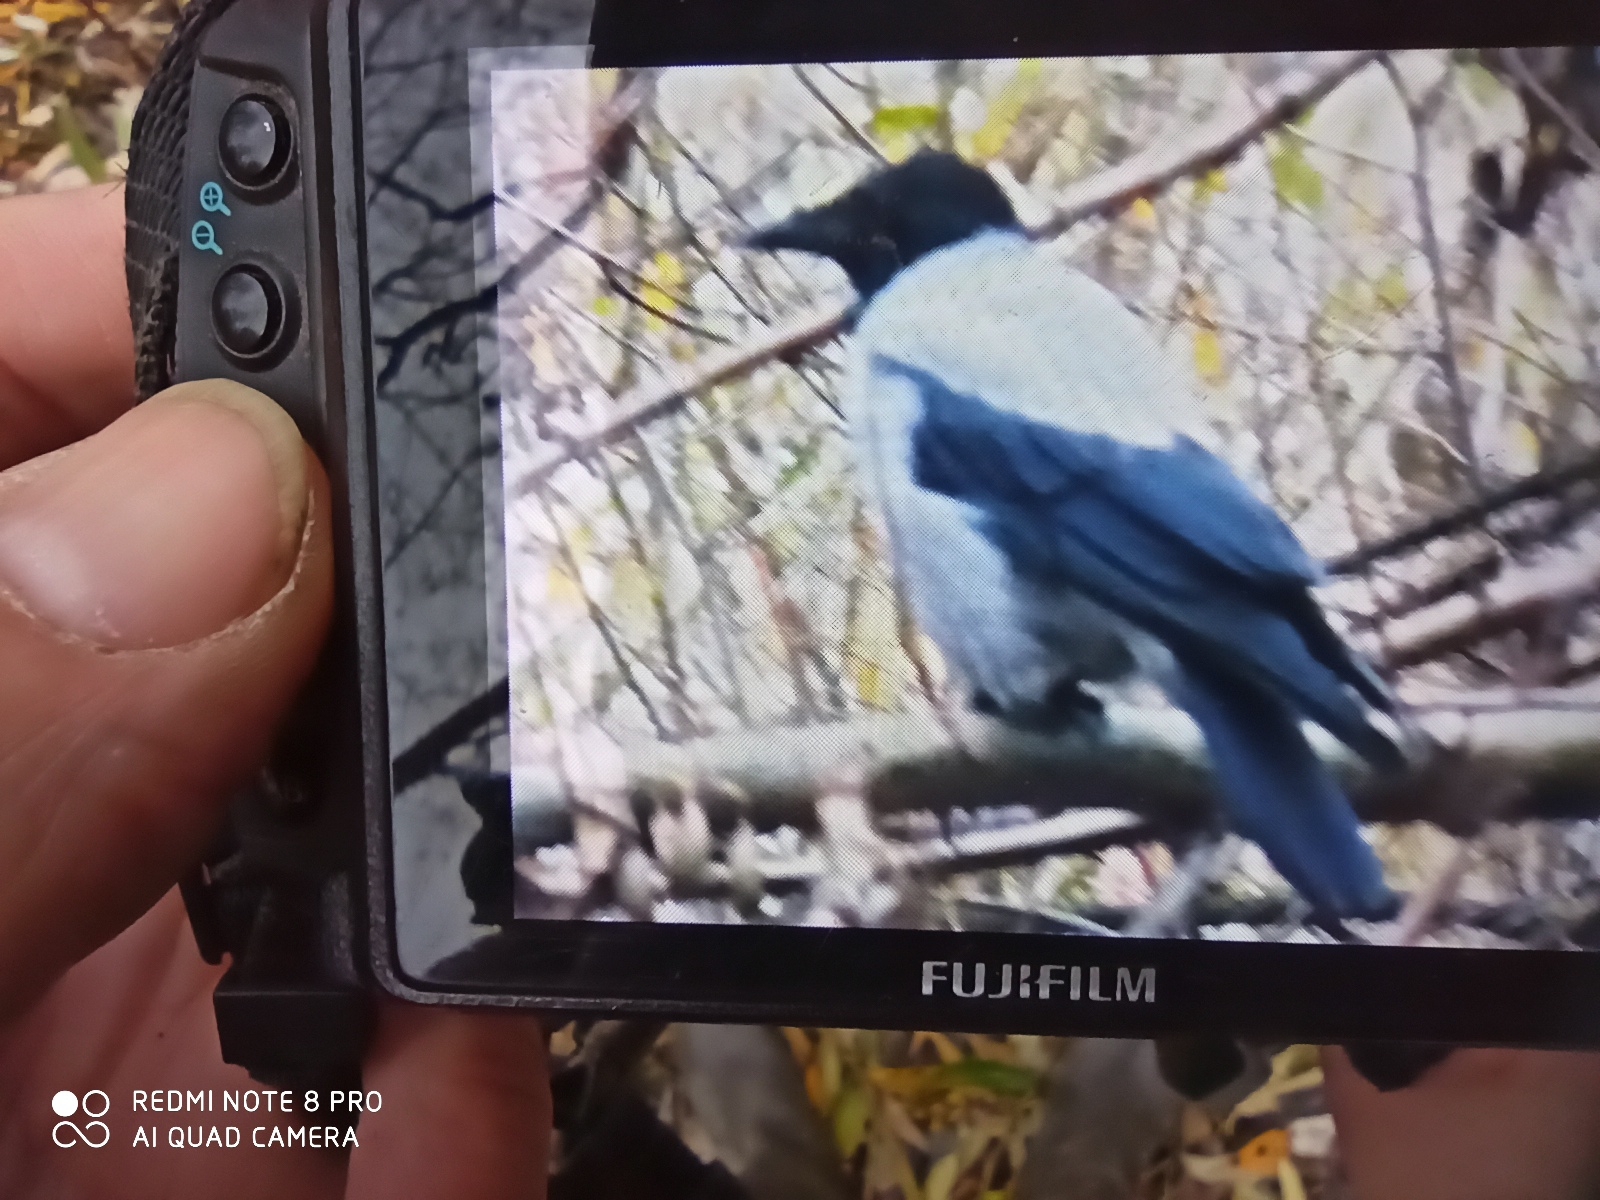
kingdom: Animalia
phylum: Chordata
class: Aves
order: Passeriformes
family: Corvidae
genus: Corvus
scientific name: Corvus cornix
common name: Hooded crow
